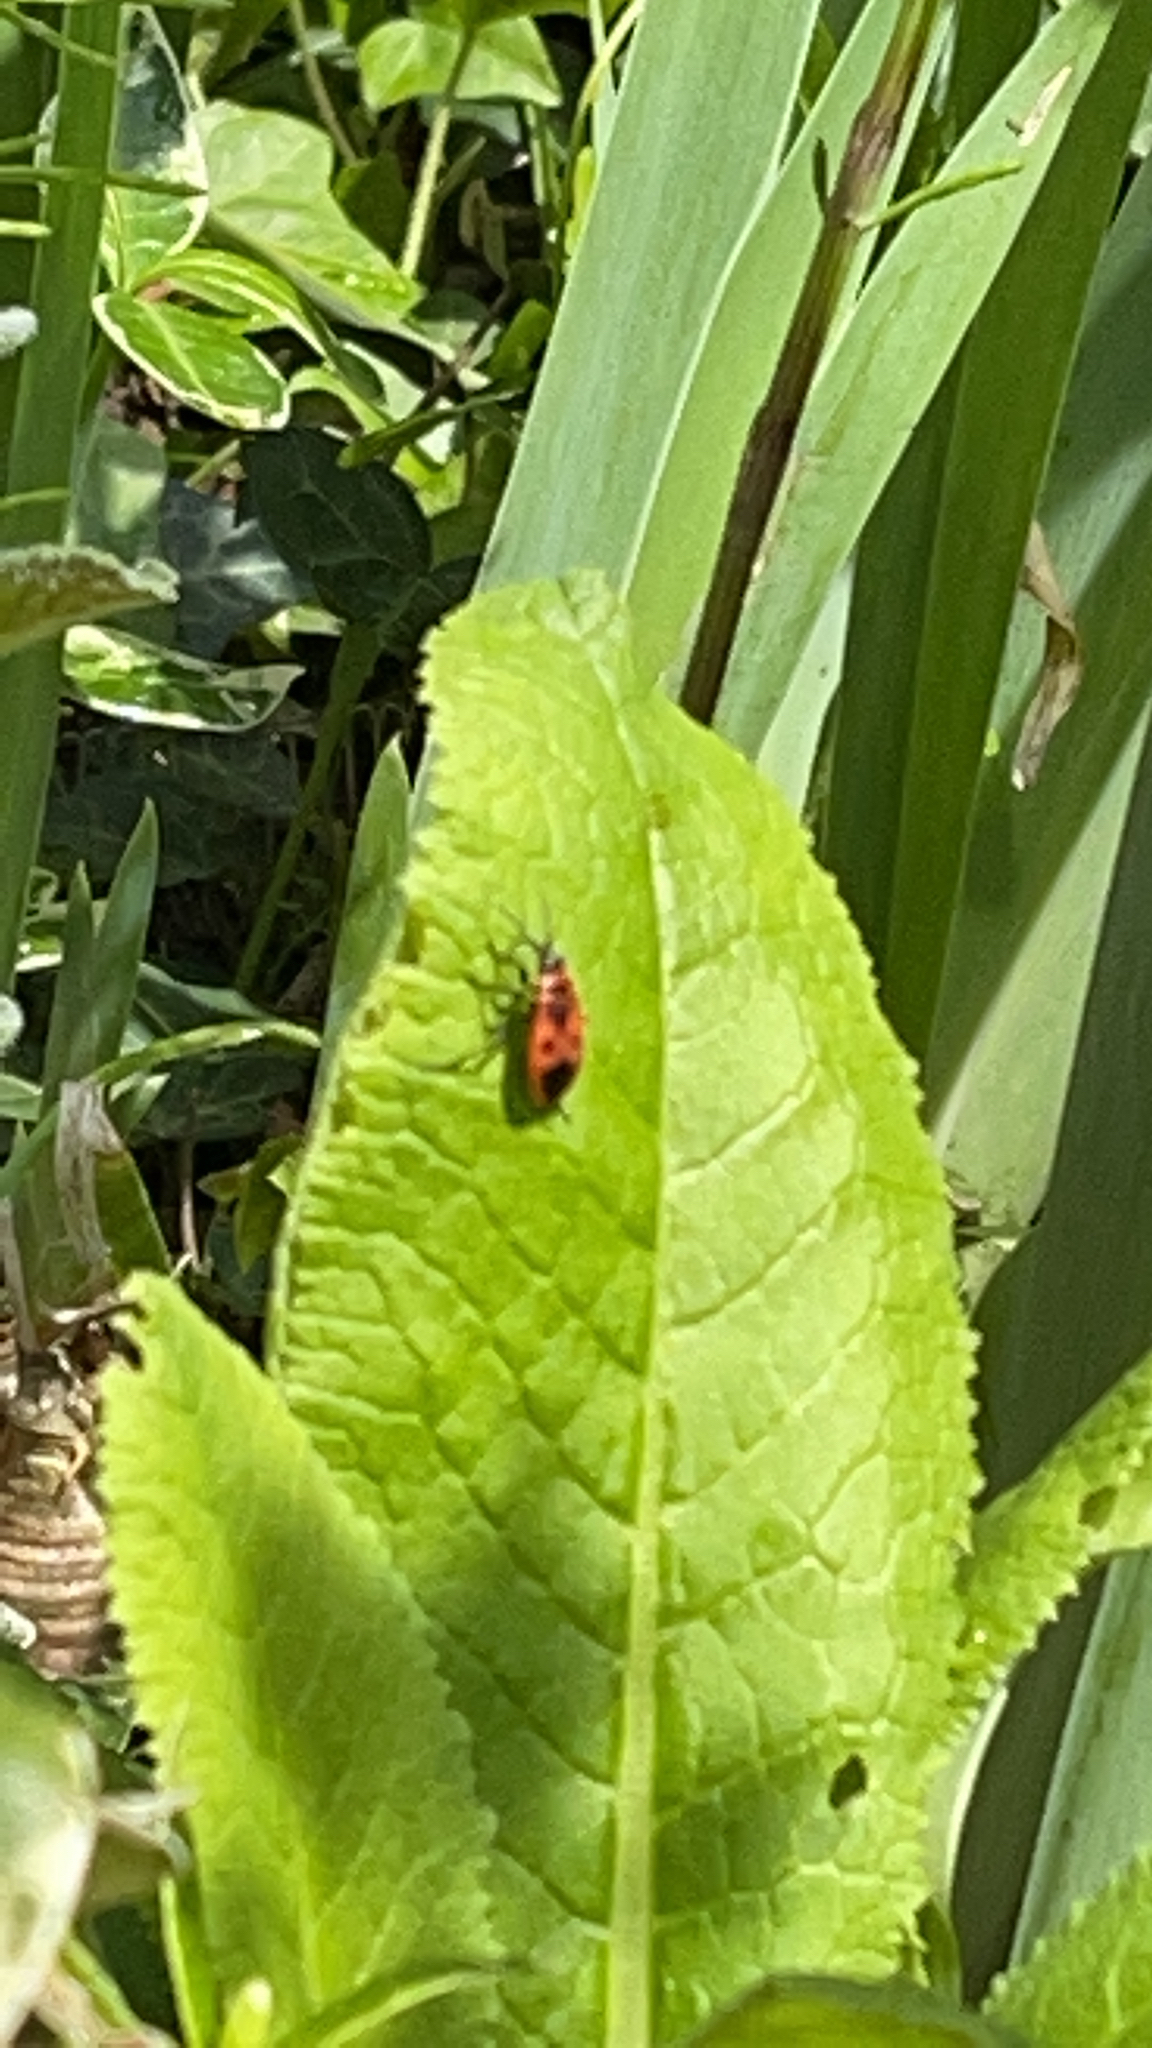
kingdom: Animalia
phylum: Arthropoda
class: Insecta
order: Hemiptera
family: Pyrrhocoridae
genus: Pyrrhocoris
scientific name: Pyrrhocoris apterus
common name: Firebug
